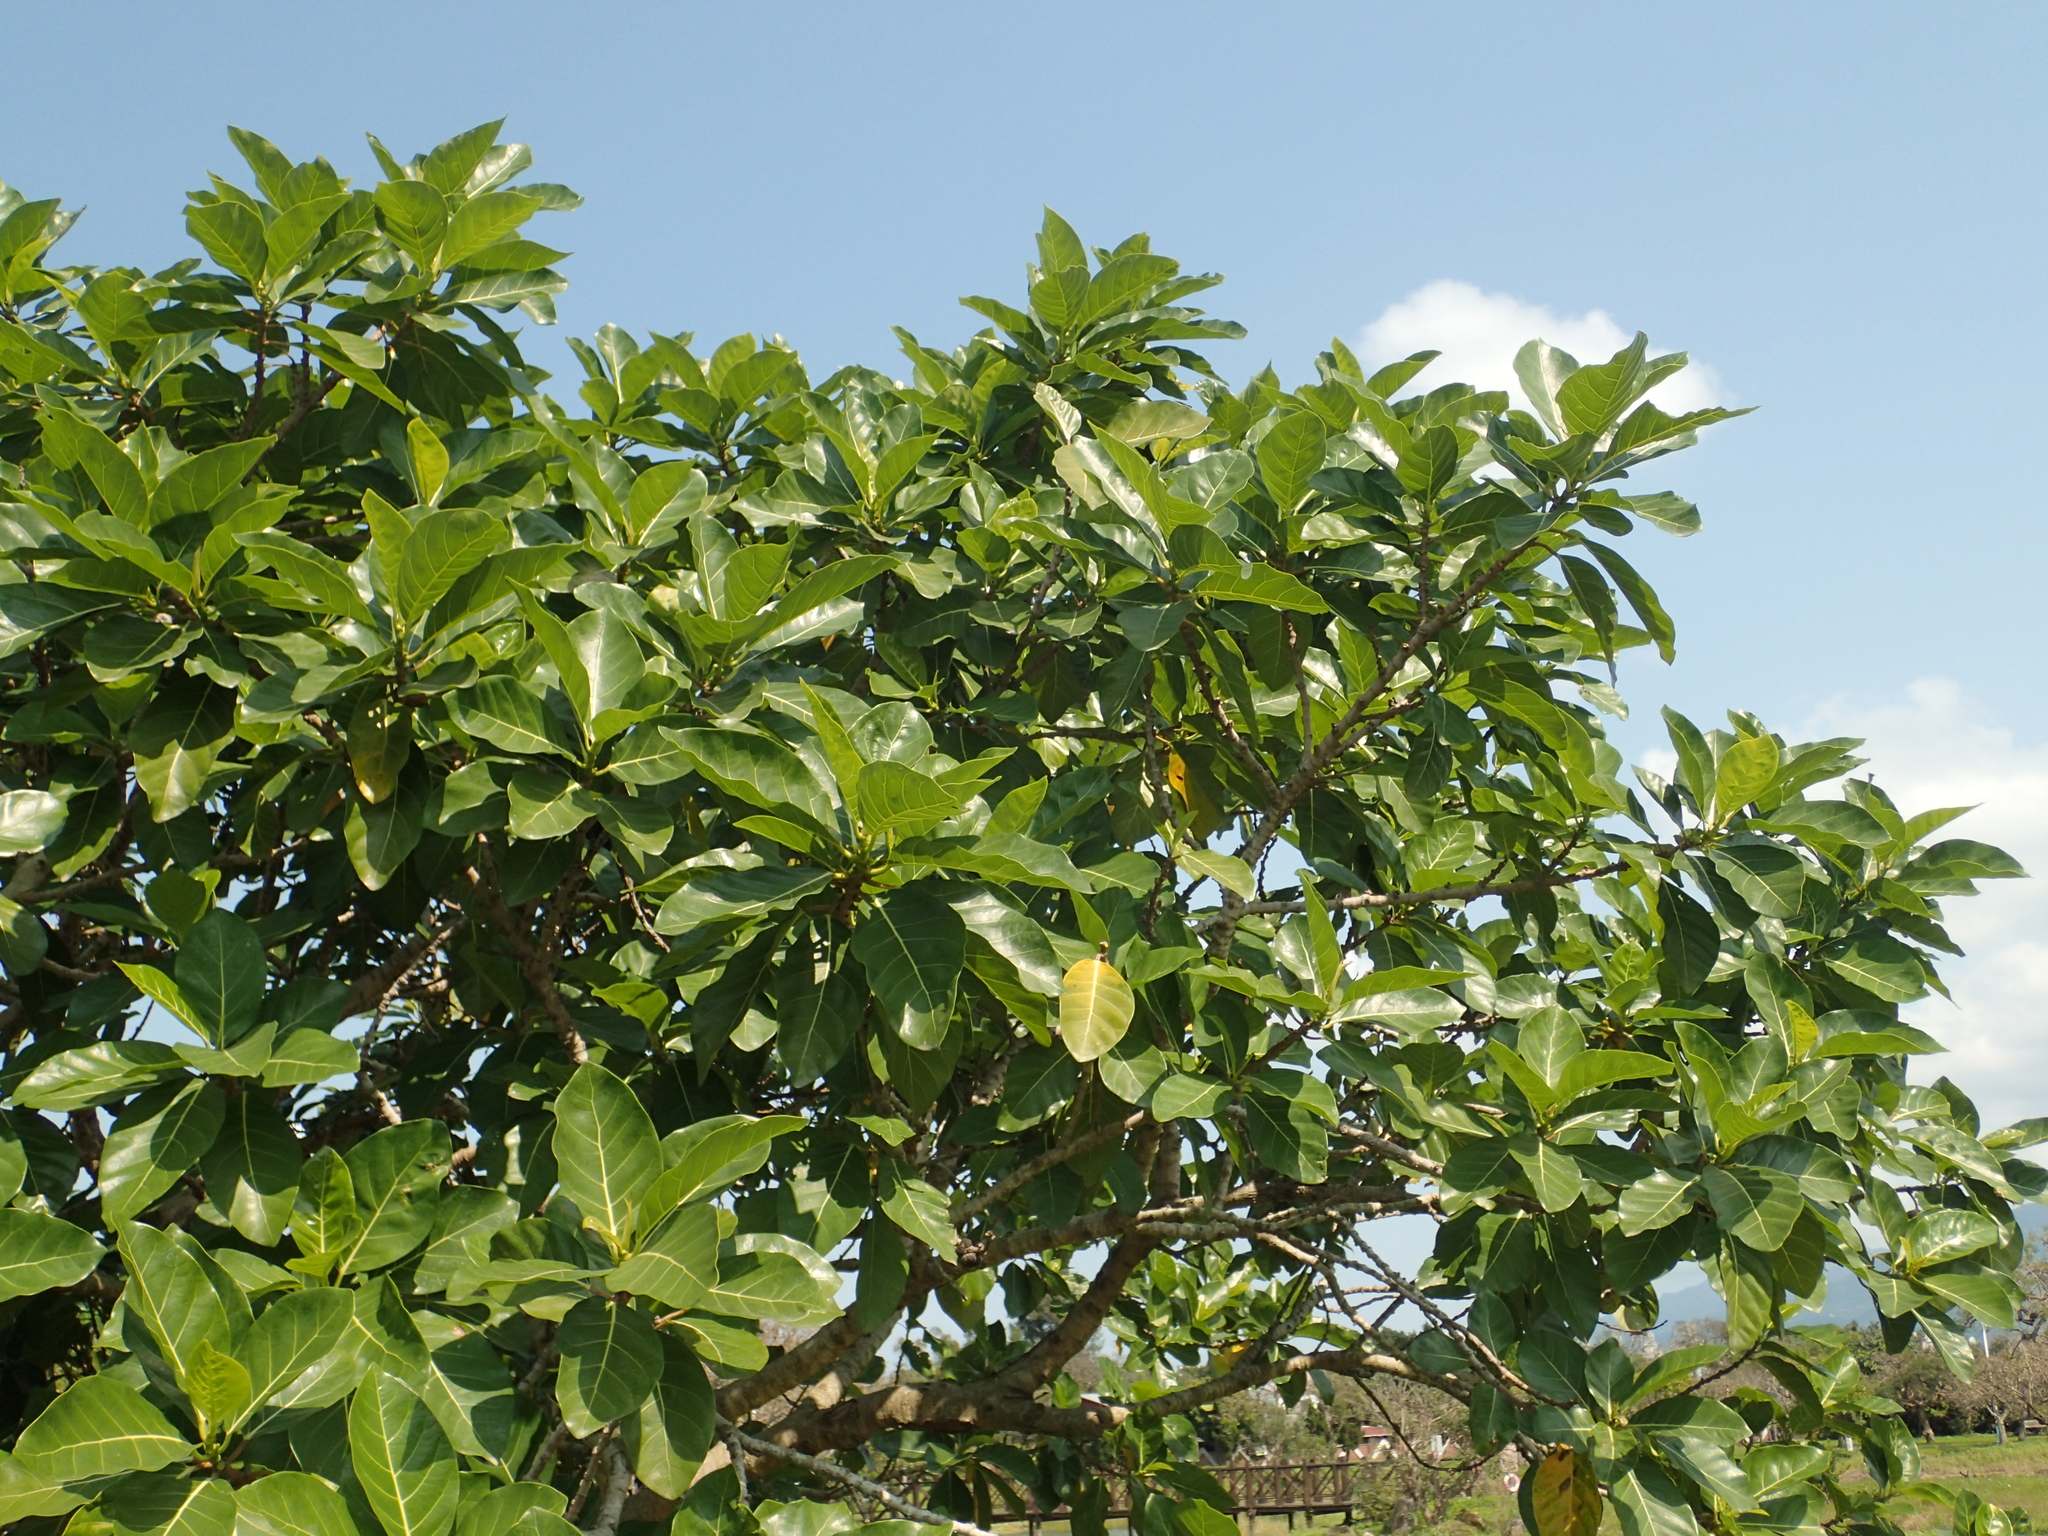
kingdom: Plantae
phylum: Tracheophyta
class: Magnoliopsida
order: Rosales
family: Moraceae
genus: Ficus
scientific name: Ficus septica
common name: Septic fig
